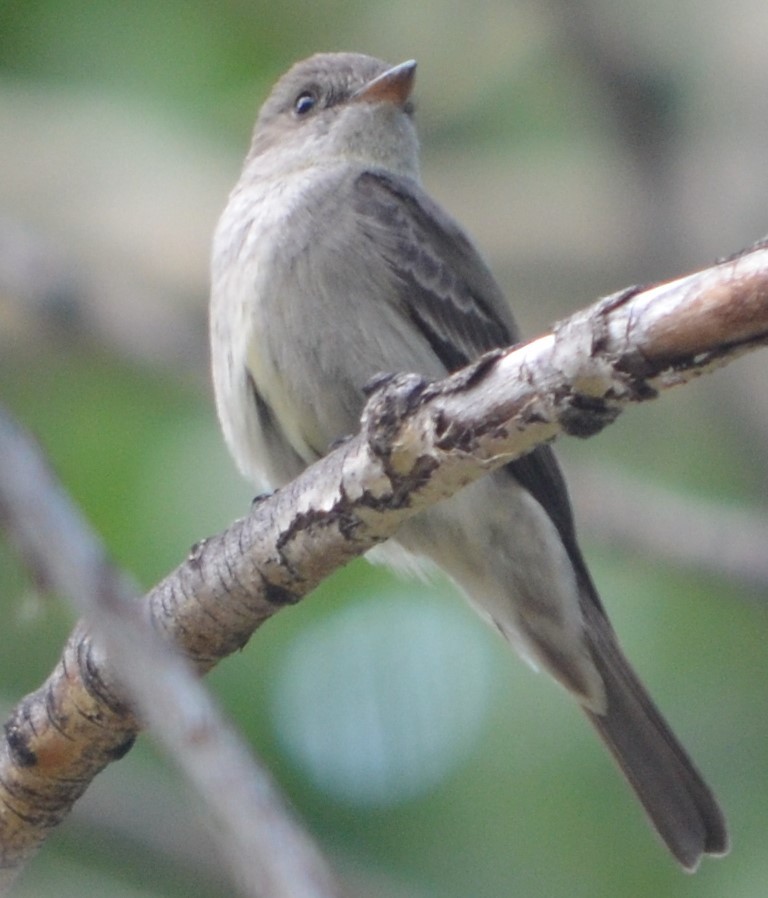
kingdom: Animalia
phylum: Chordata
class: Aves
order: Passeriformes
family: Tyrannidae
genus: Contopus
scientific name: Contopus sordidulus
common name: Western wood-pewee
